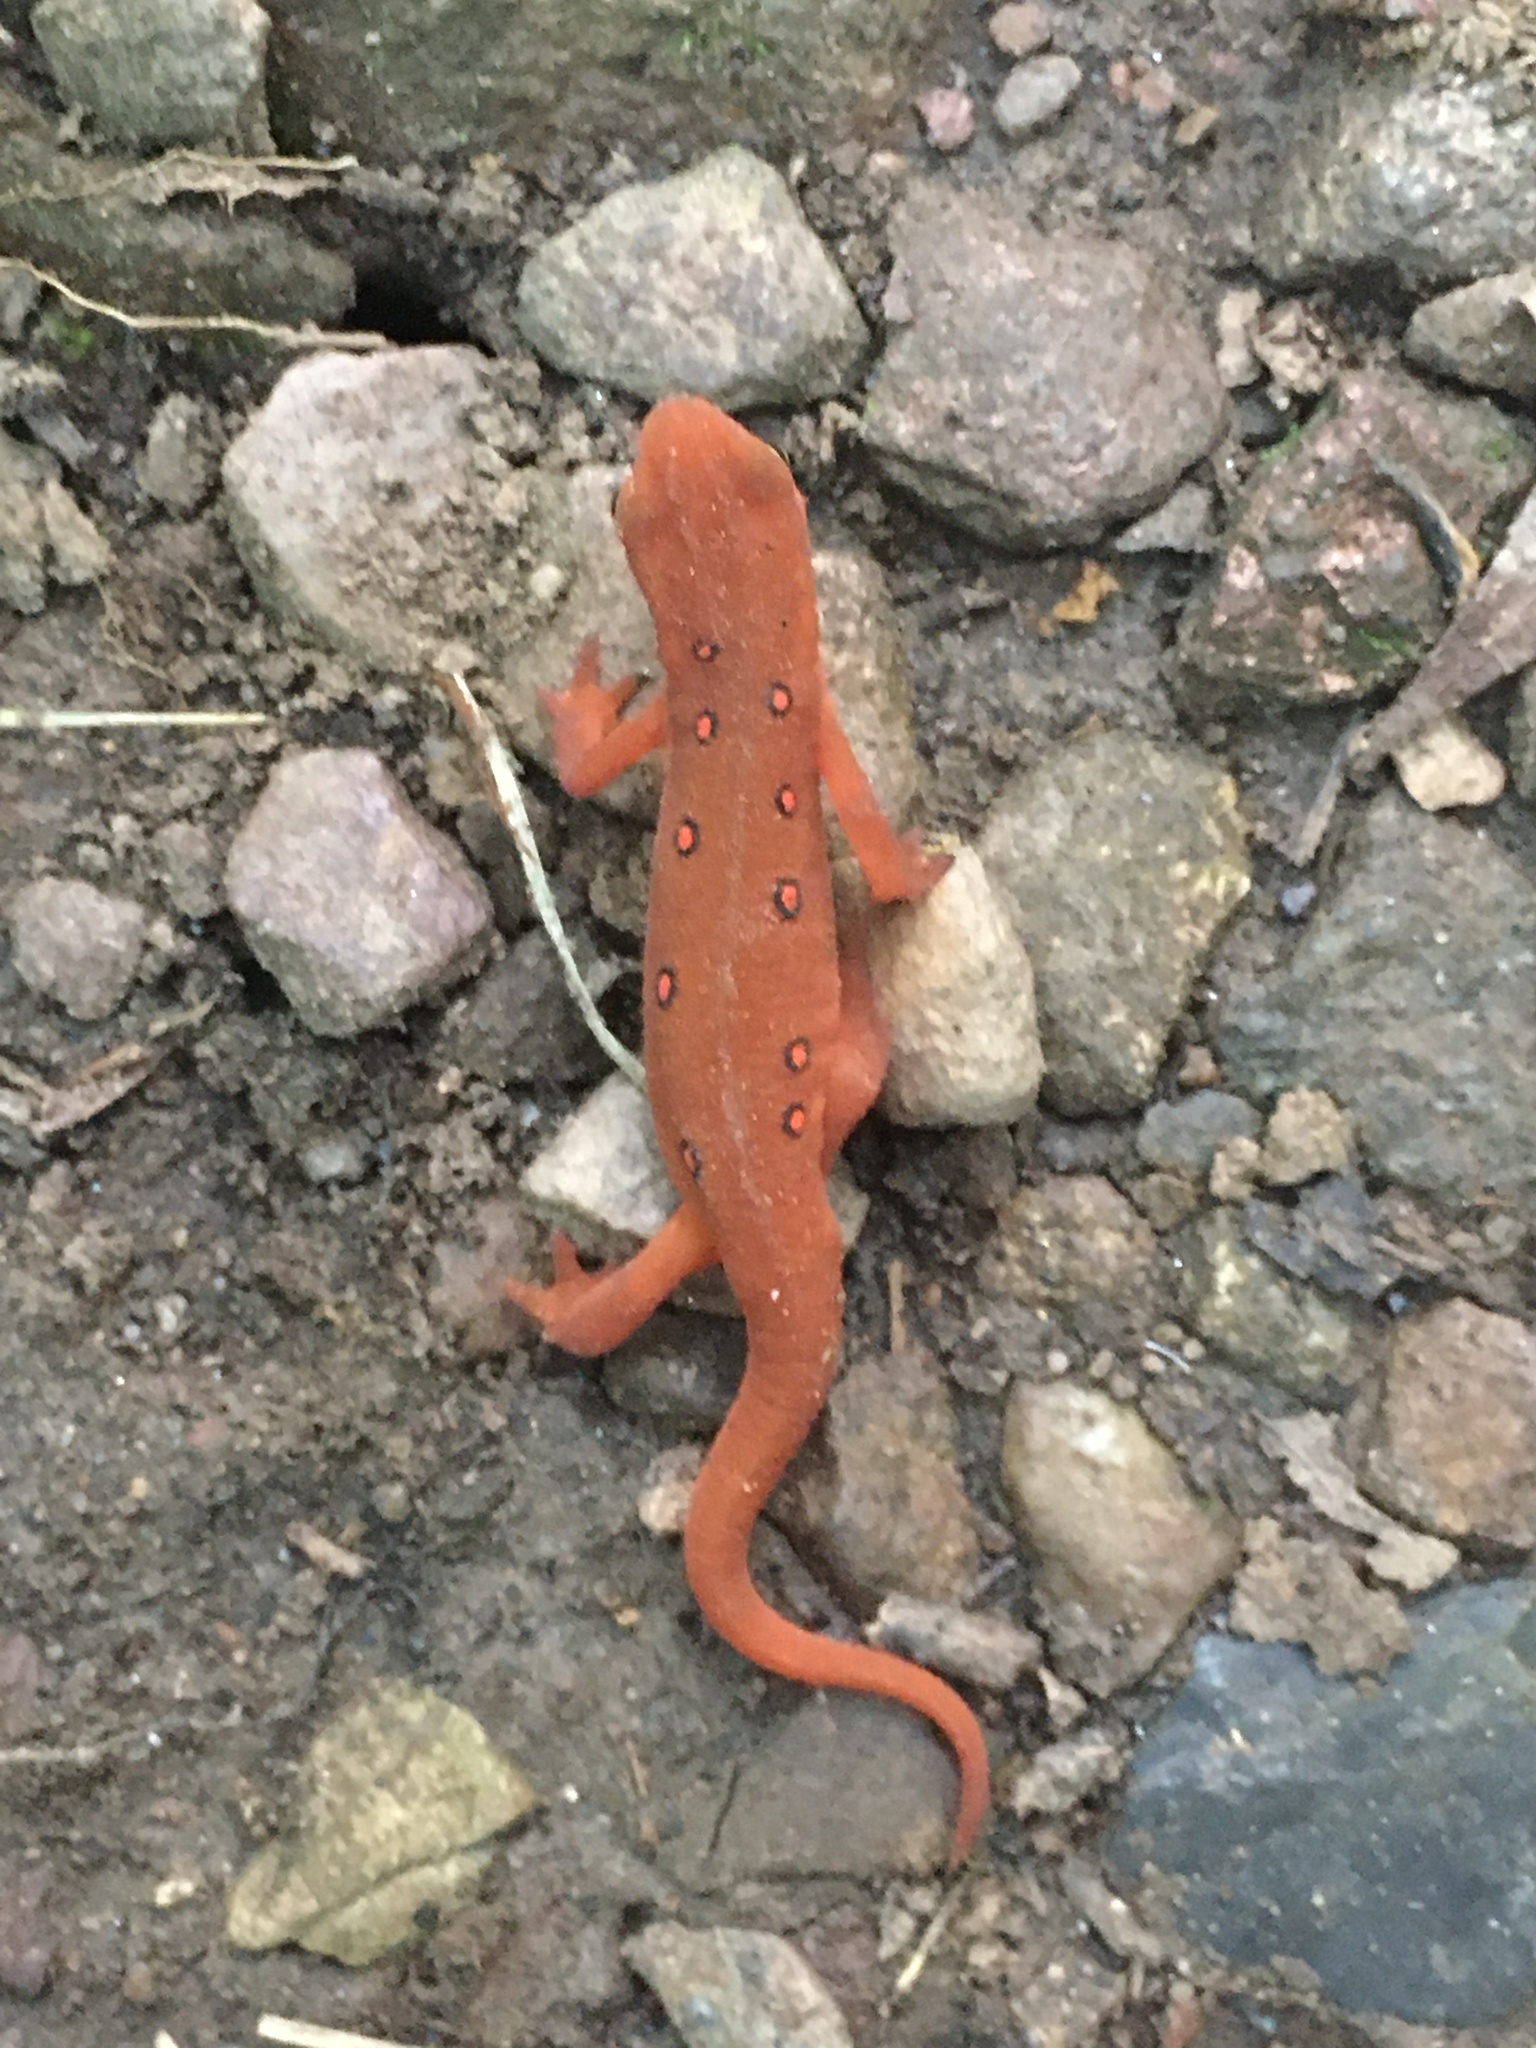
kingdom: Animalia
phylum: Chordata
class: Amphibia
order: Caudata
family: Salamandridae
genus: Notophthalmus
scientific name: Notophthalmus viridescens
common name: Eastern newt
